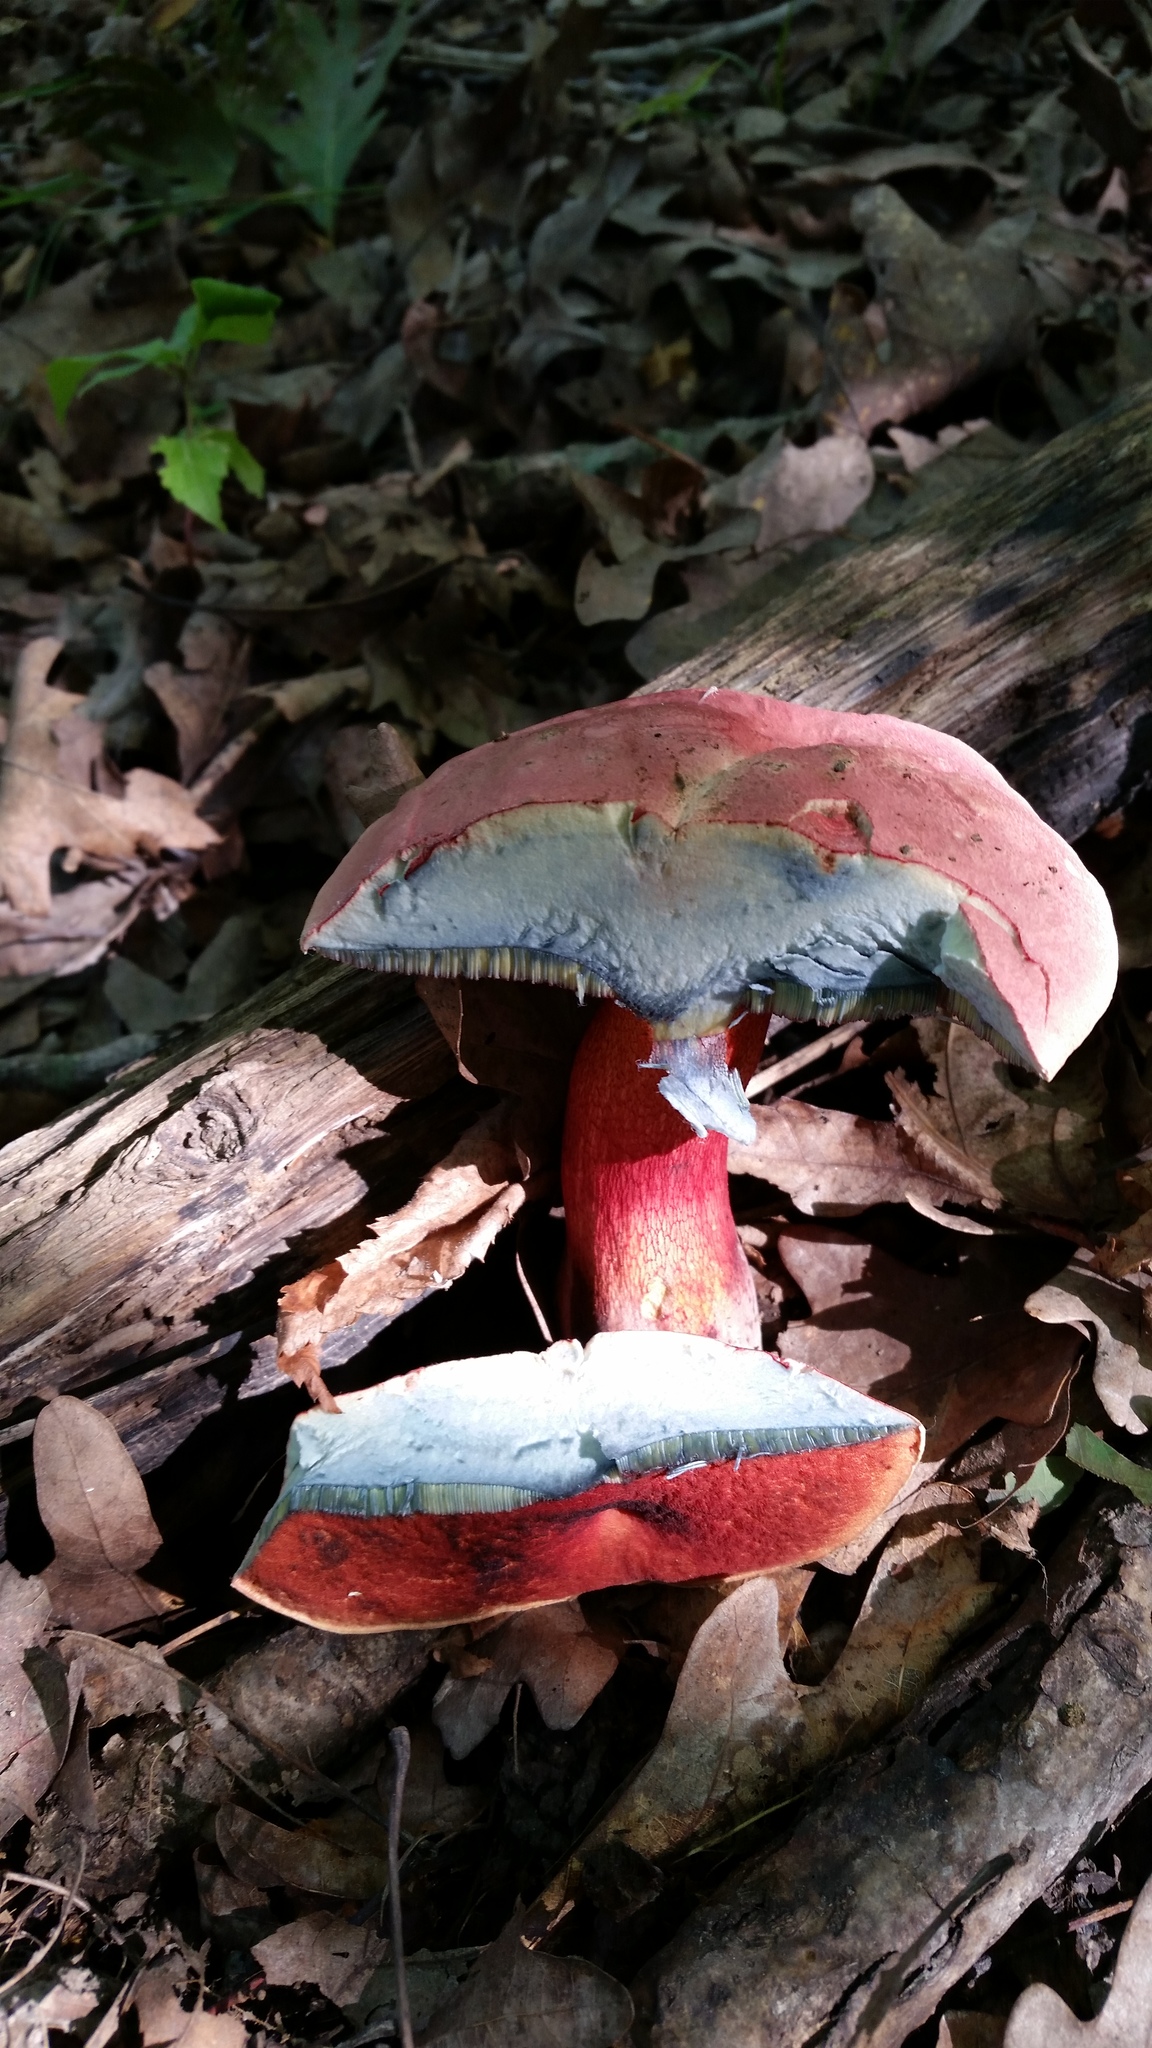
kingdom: Fungi
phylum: Basidiomycota
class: Agaricomycetes
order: Boletales
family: Boletaceae
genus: Boletus
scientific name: Boletus rubroflammeus
